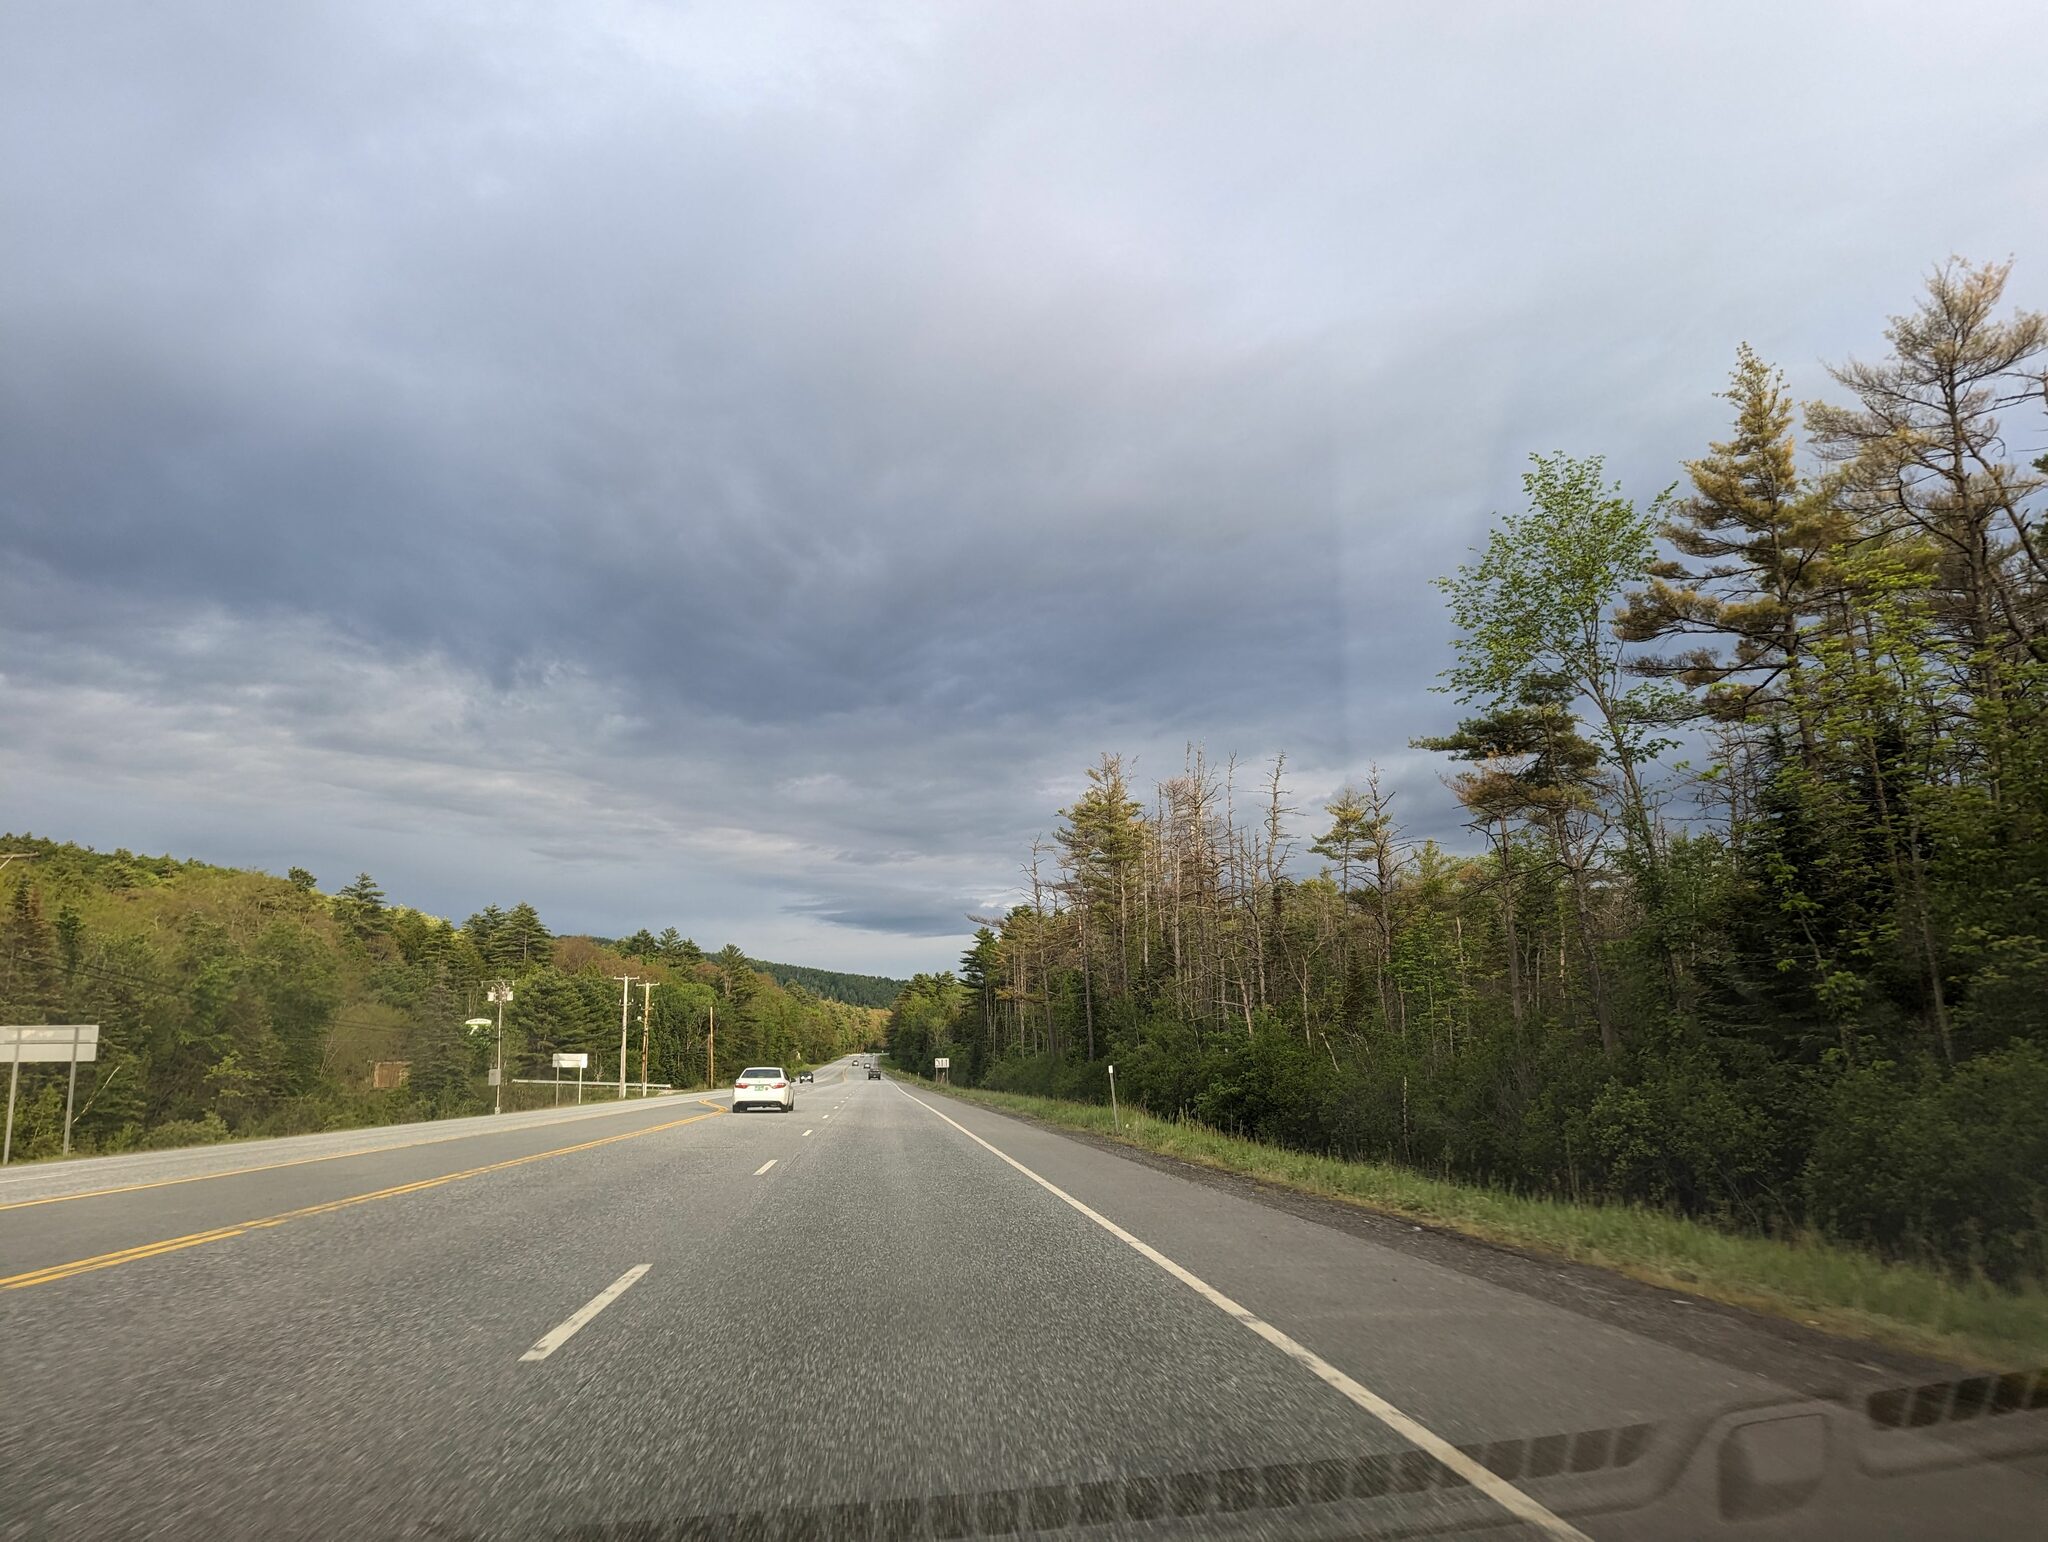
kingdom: Plantae
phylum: Tracheophyta
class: Pinopsida
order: Pinales
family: Pinaceae
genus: Pinus
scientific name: Pinus strobus
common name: Weymouth pine
